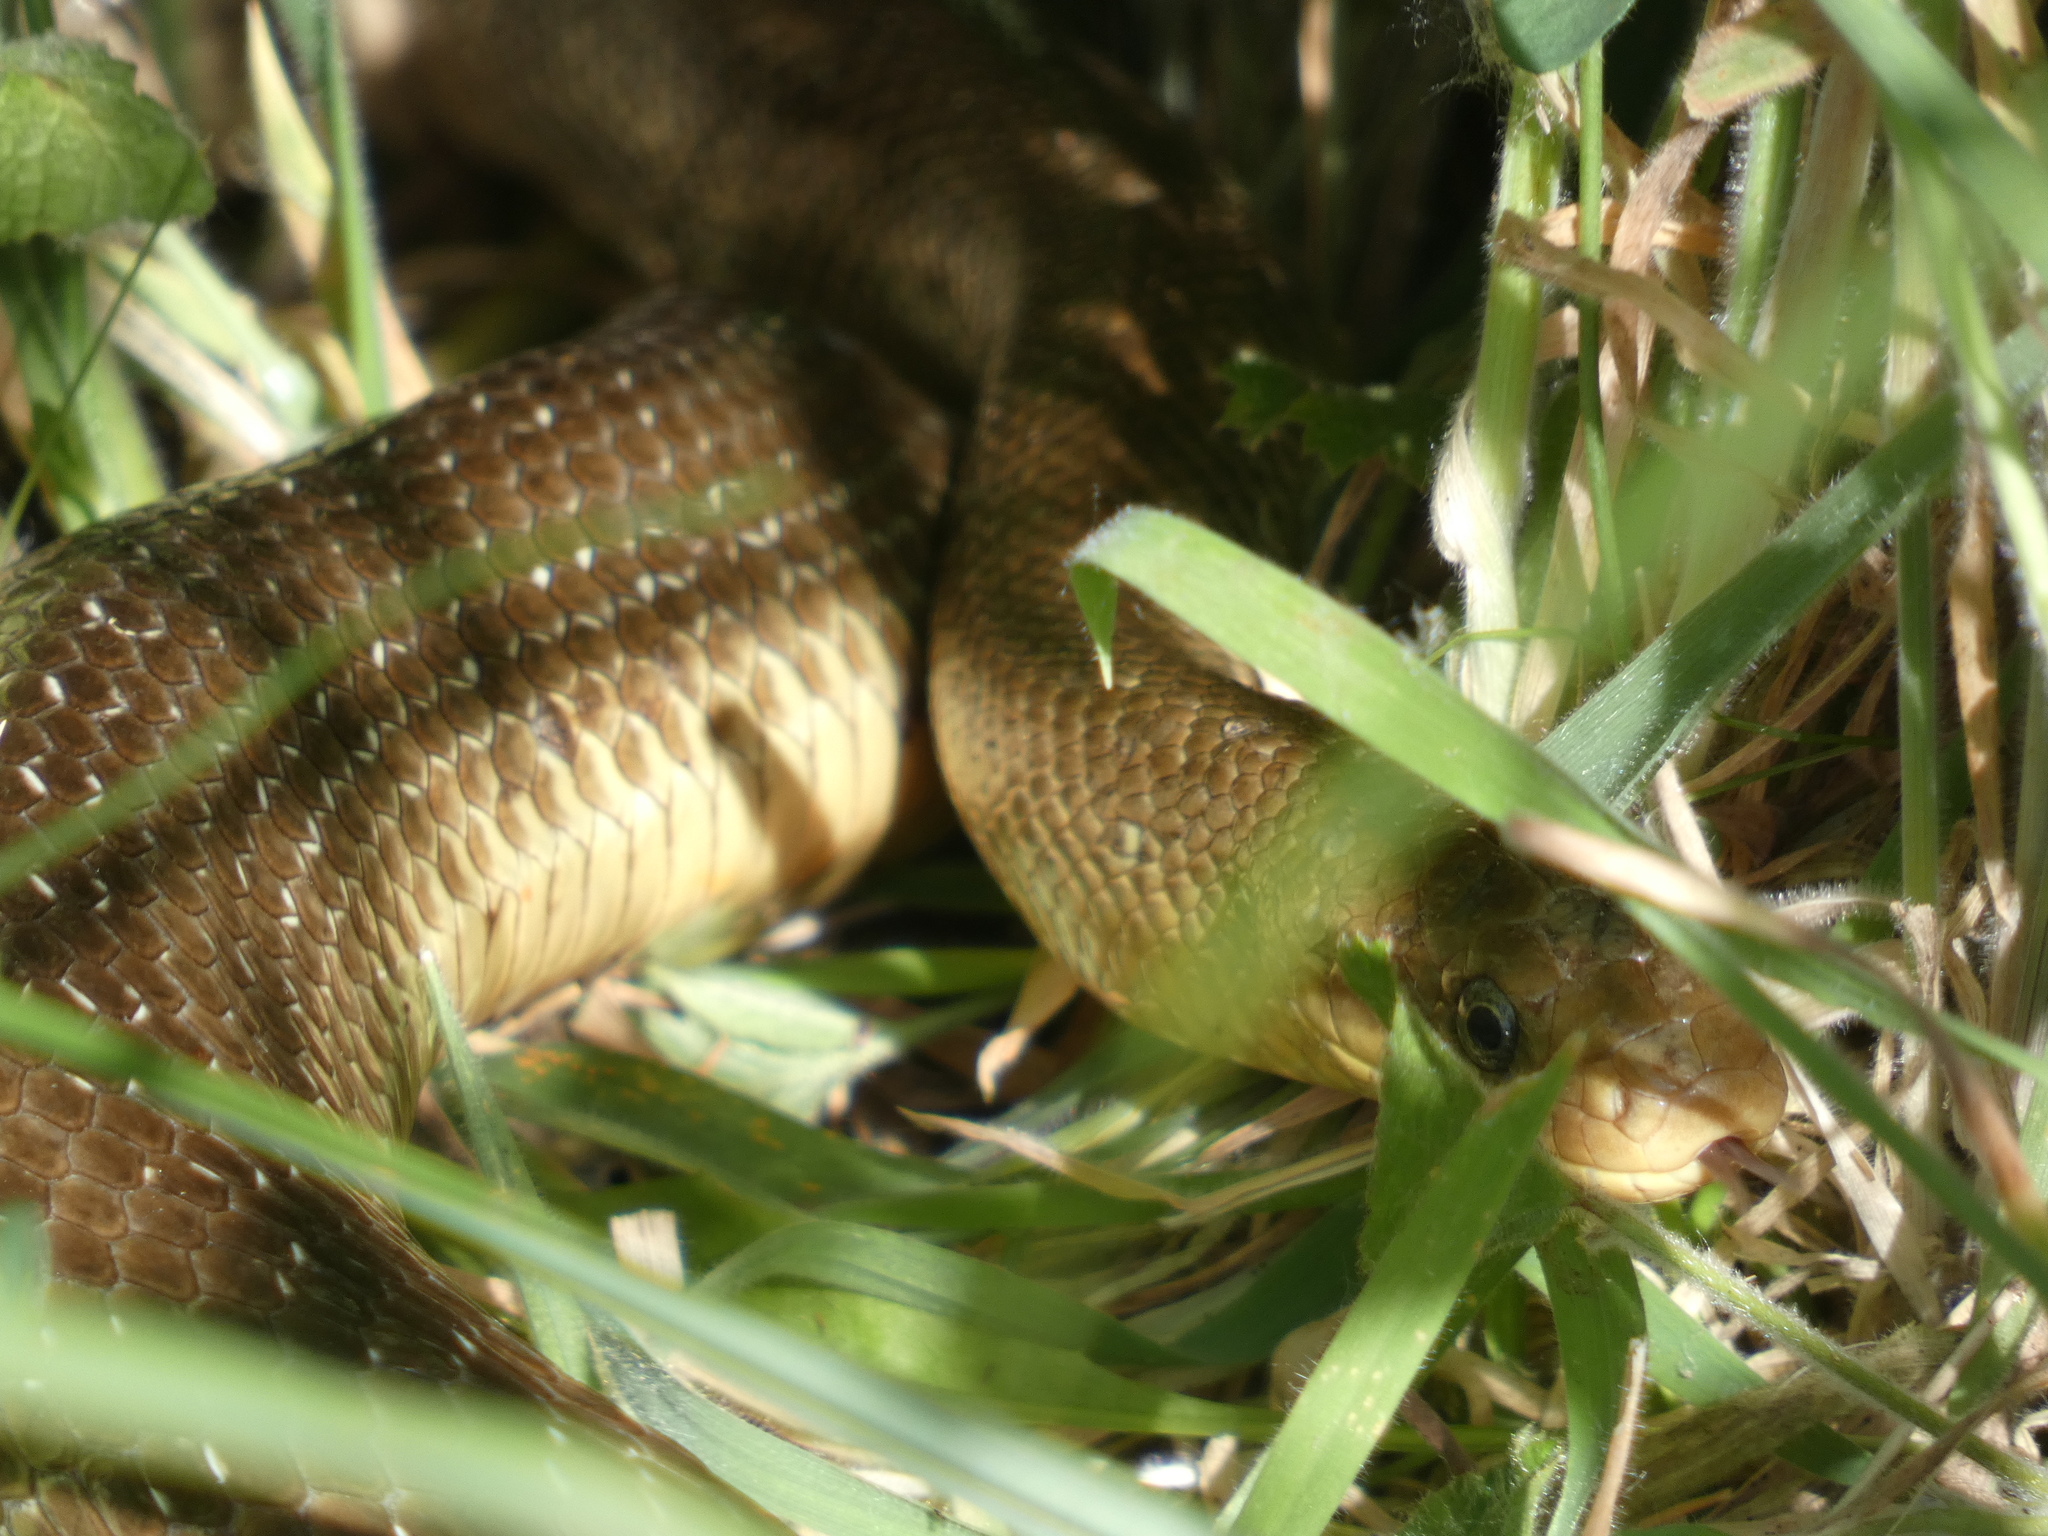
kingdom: Animalia
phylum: Chordata
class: Squamata
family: Colubridae
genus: Zamenis
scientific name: Zamenis longissimus
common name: Aesculapean snake
